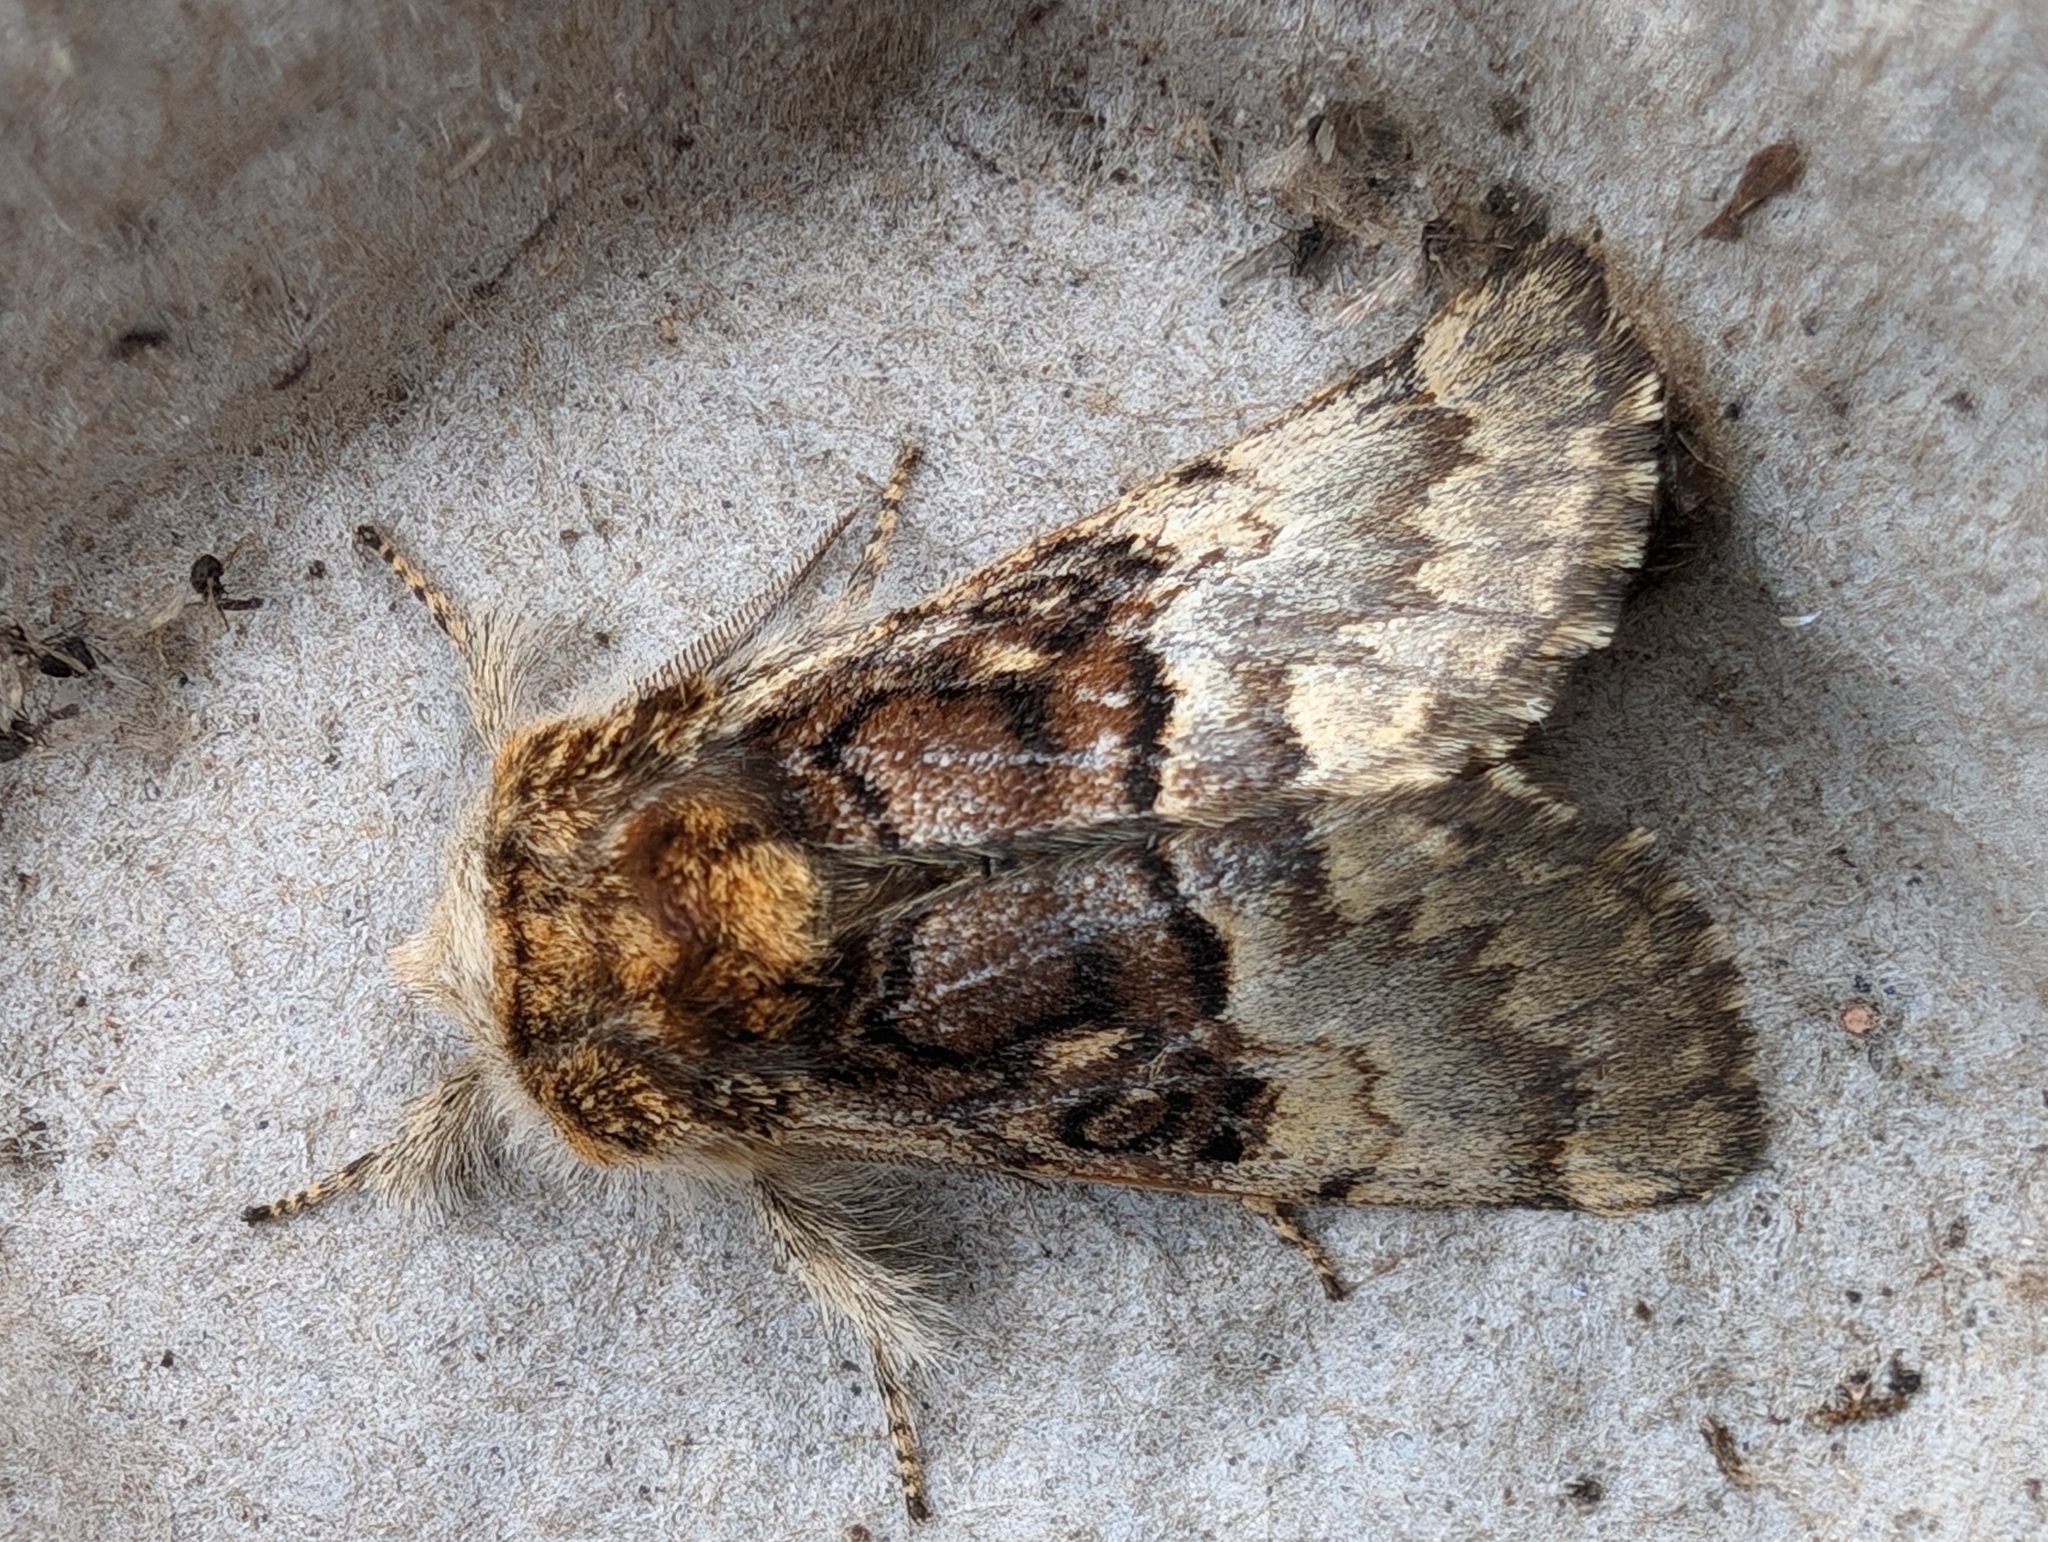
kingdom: Animalia
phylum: Arthropoda
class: Insecta
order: Lepidoptera
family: Noctuidae
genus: Colocasia
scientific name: Colocasia coryli
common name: Nut-tree tussock
